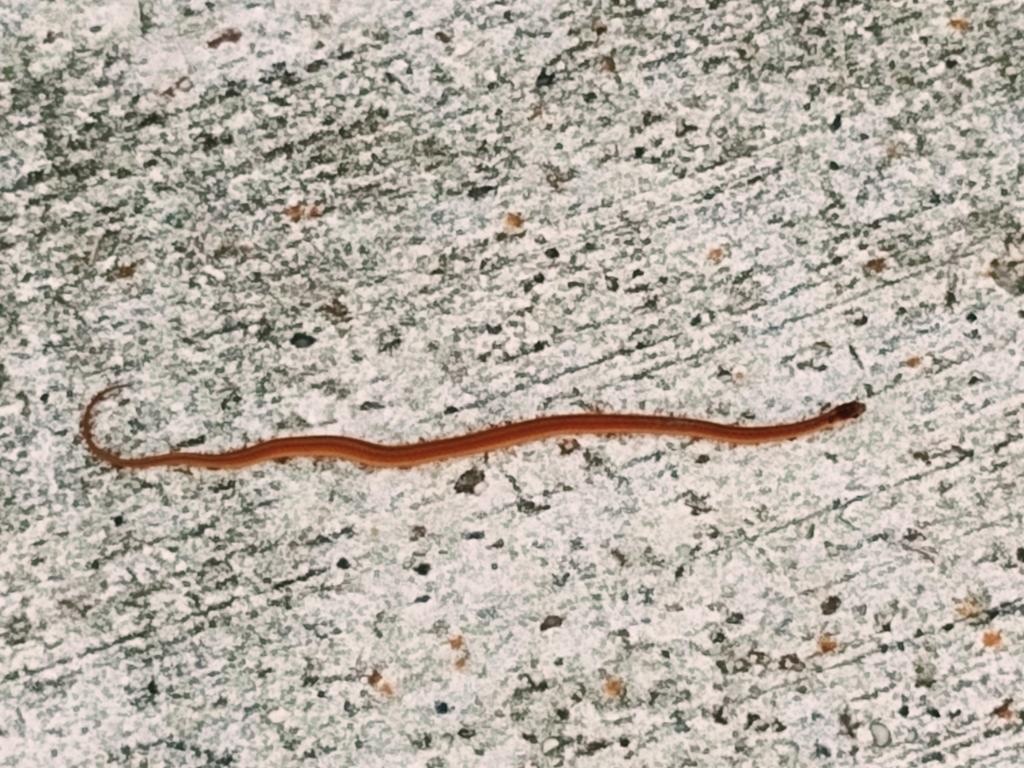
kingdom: Animalia
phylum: Chordata
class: Squamata
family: Colubridae
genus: Storeria
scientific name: Storeria dekayi
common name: (dekay’s) brown snake
